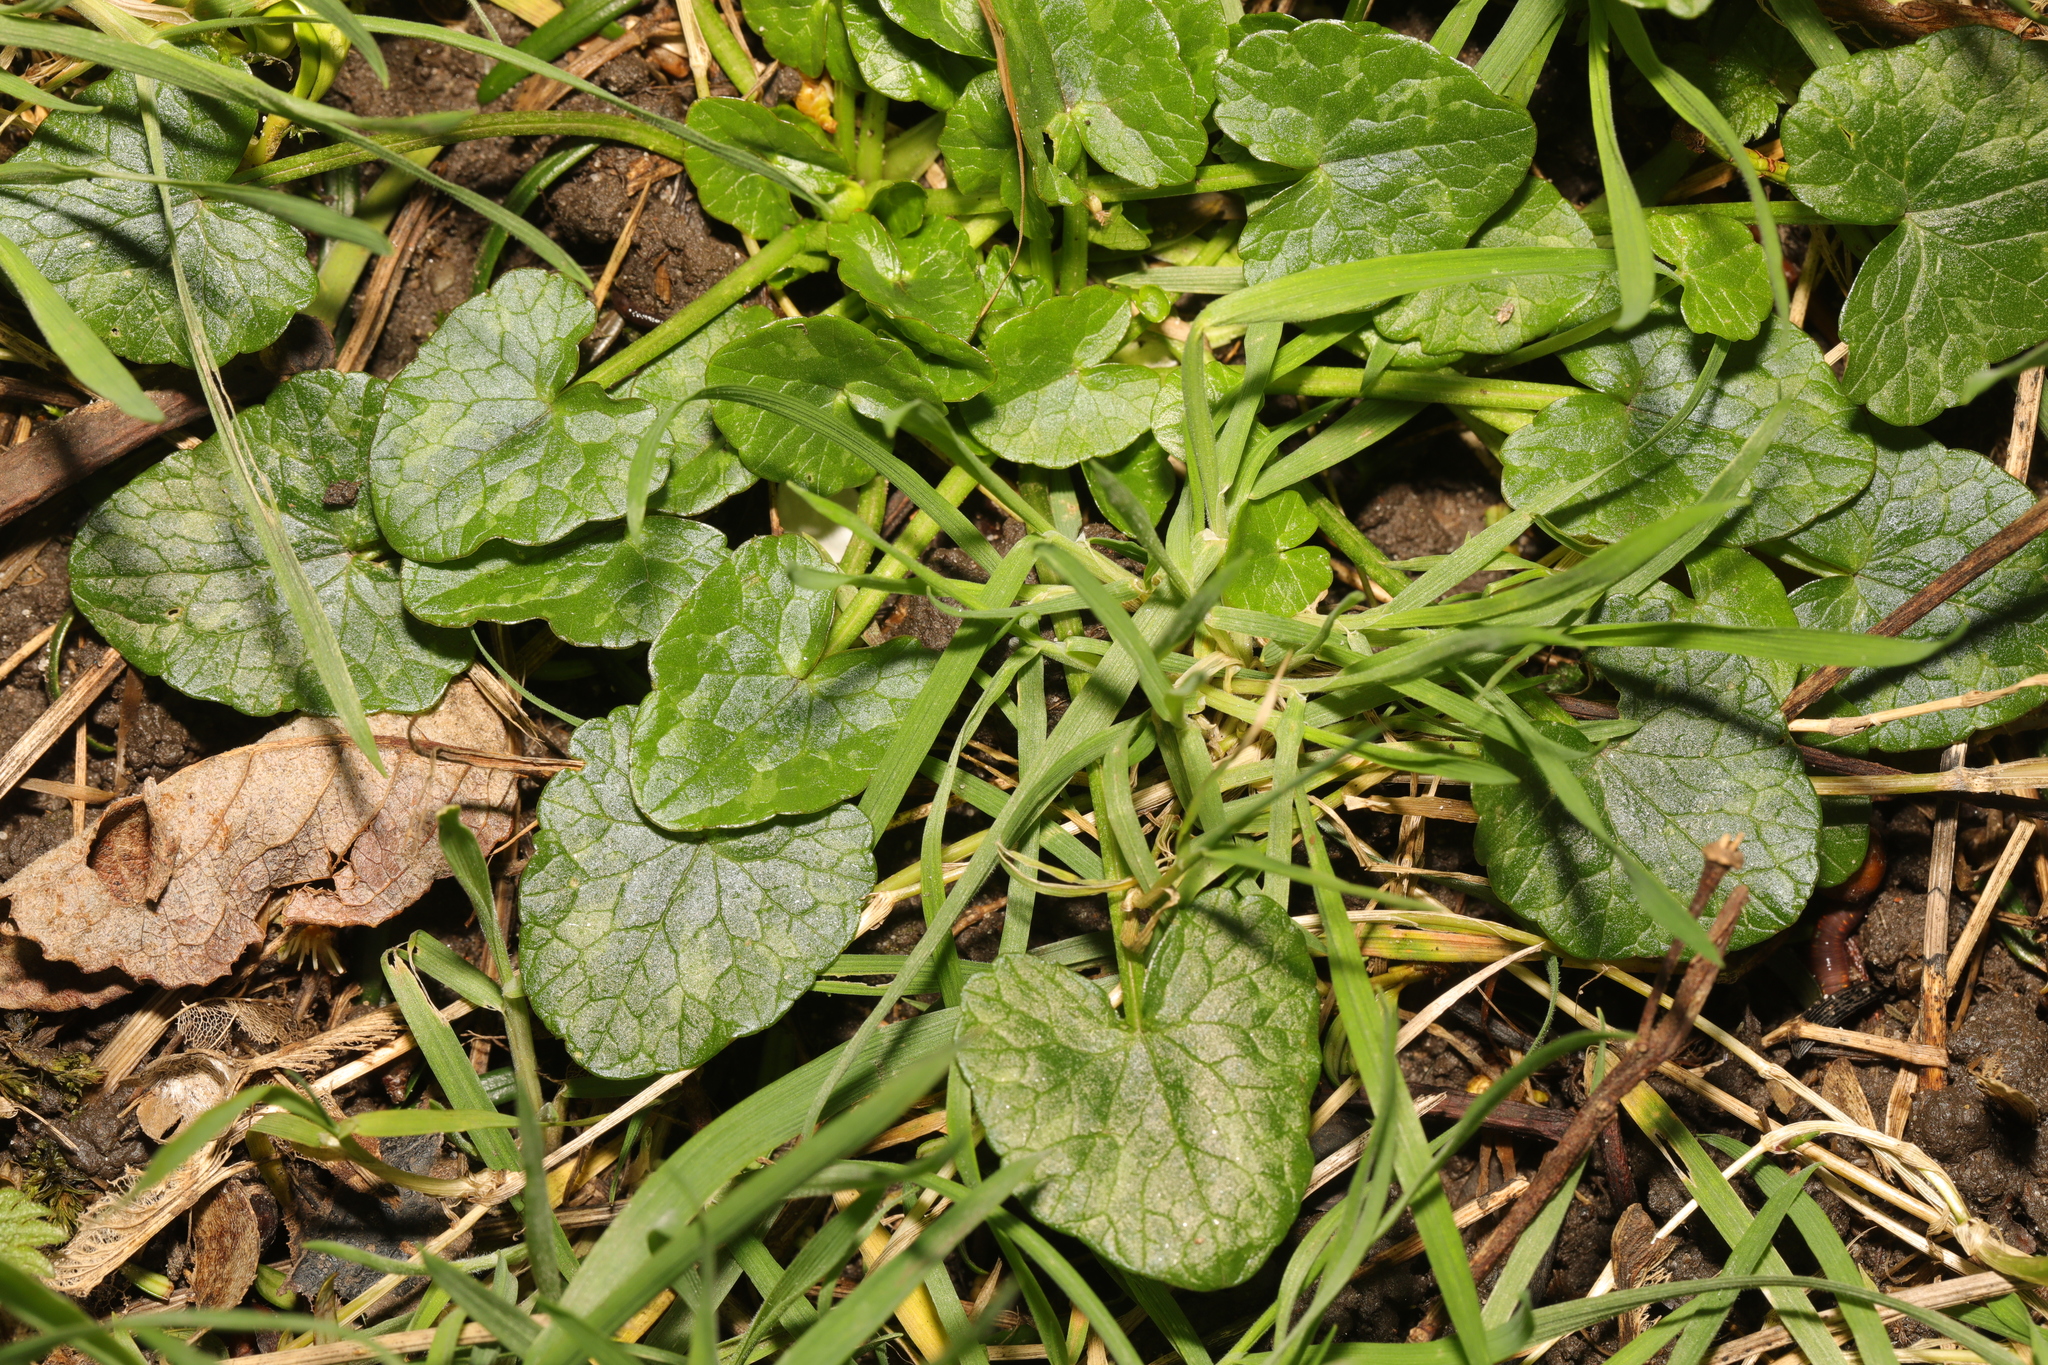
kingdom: Plantae
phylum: Tracheophyta
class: Magnoliopsida
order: Ranunculales
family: Ranunculaceae
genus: Ficaria
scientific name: Ficaria verna
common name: Lesser celandine
